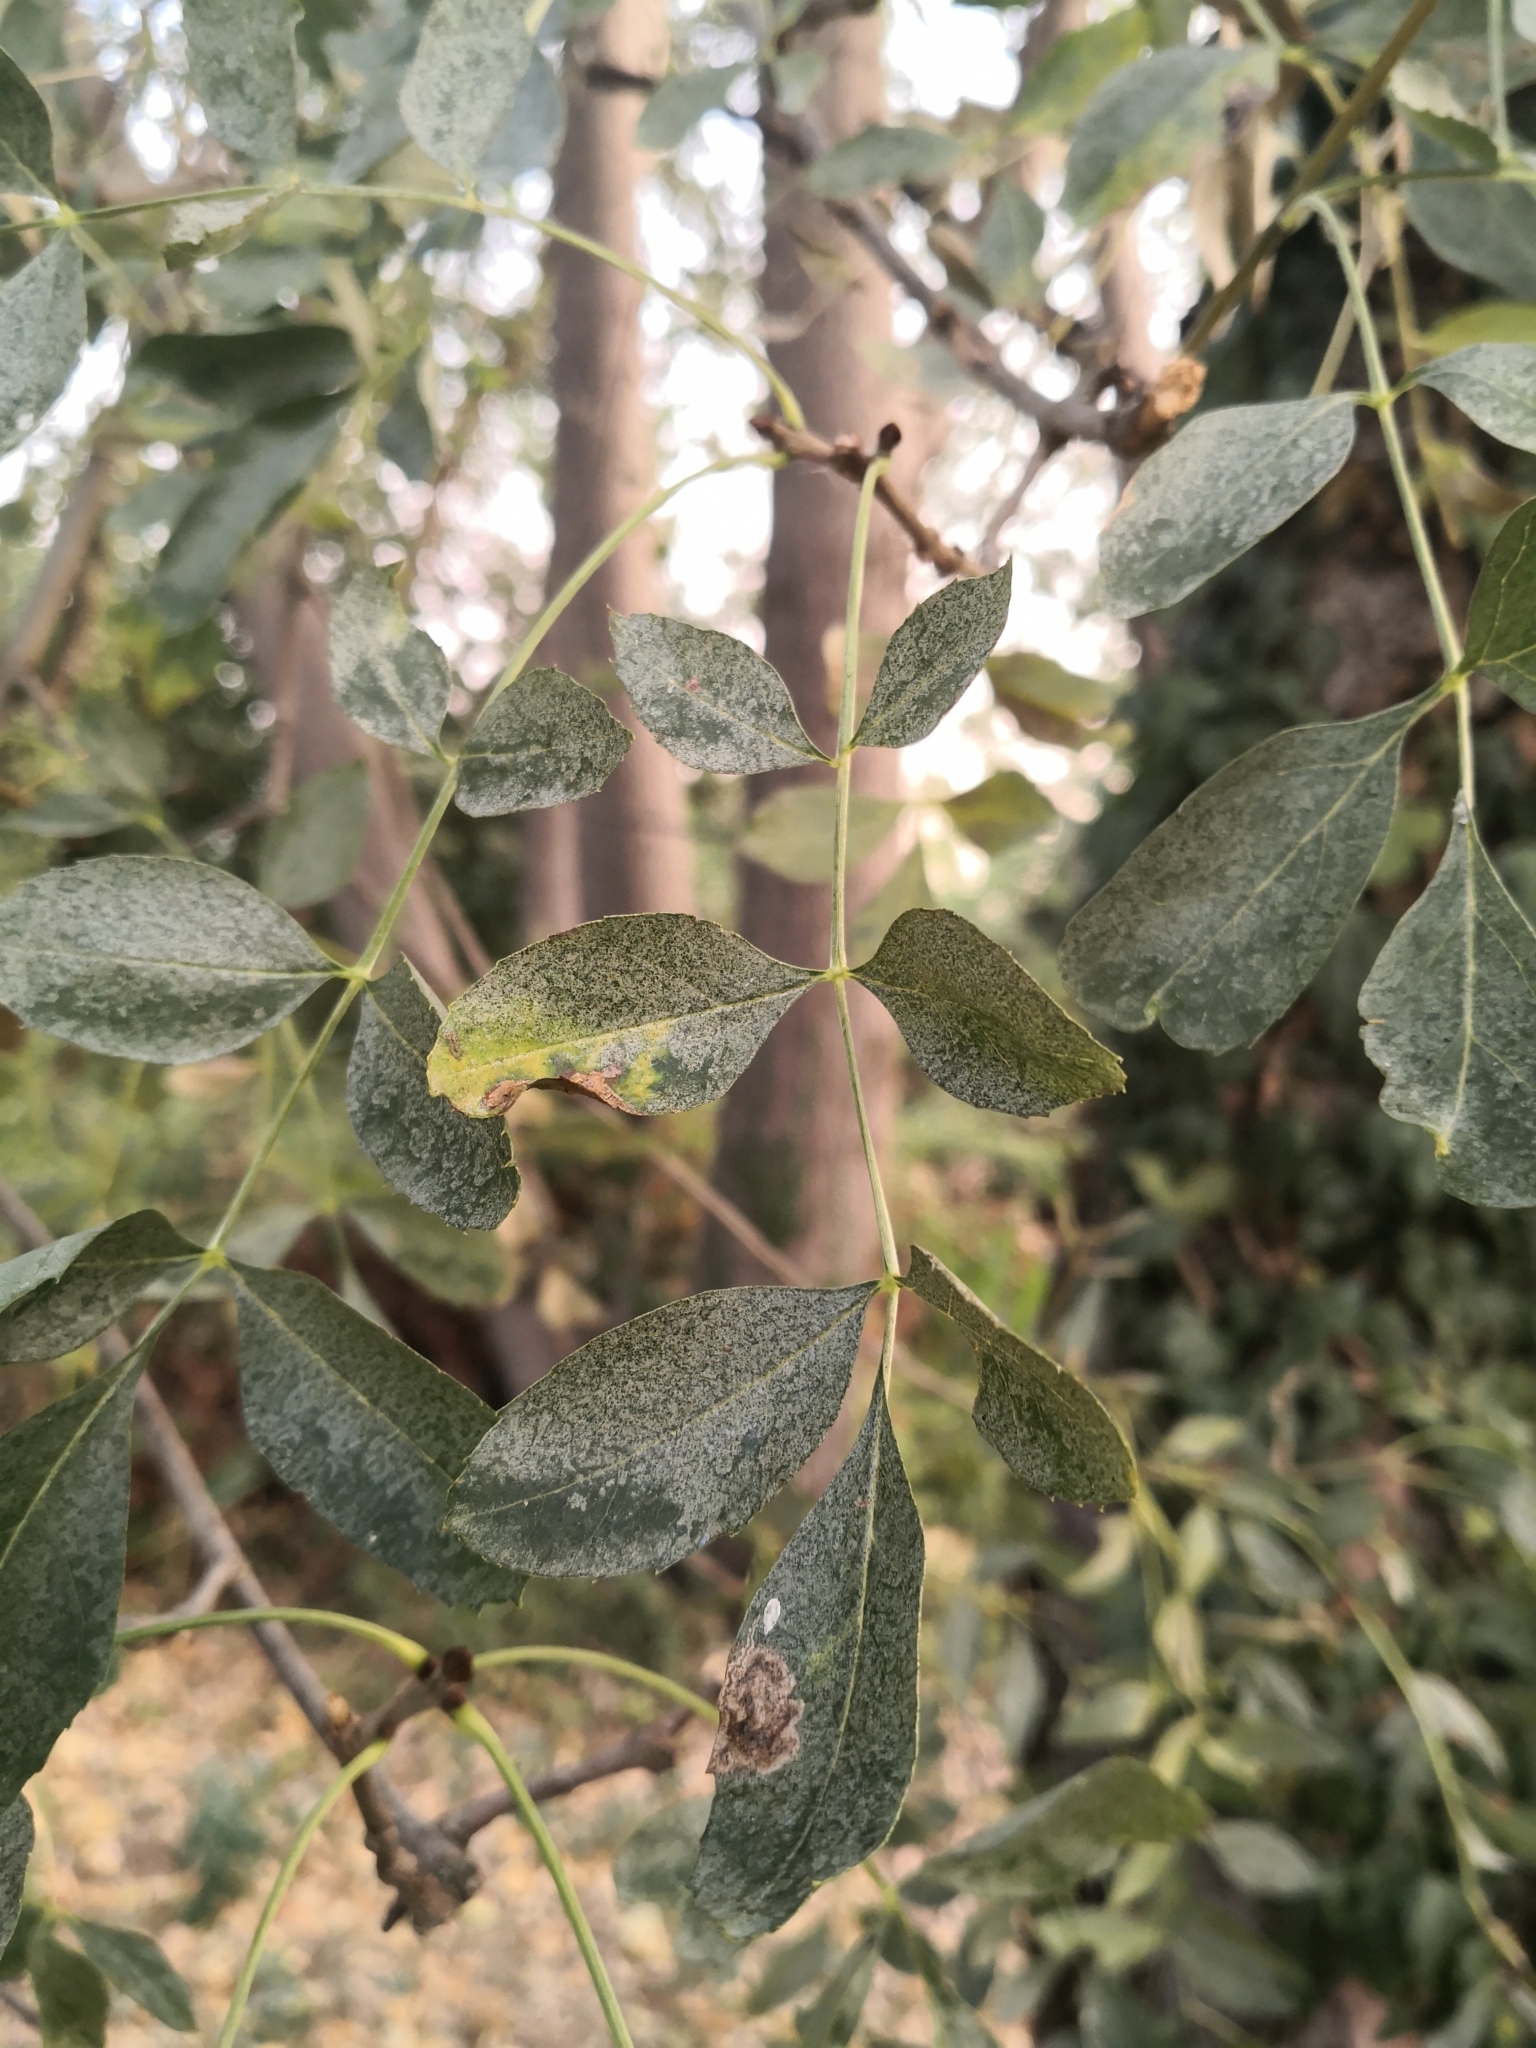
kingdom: Plantae
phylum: Tracheophyta
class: Magnoliopsida
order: Lamiales
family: Oleaceae
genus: Fraxinus
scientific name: Fraxinus angustifolia
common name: Narrow-leafed ash
